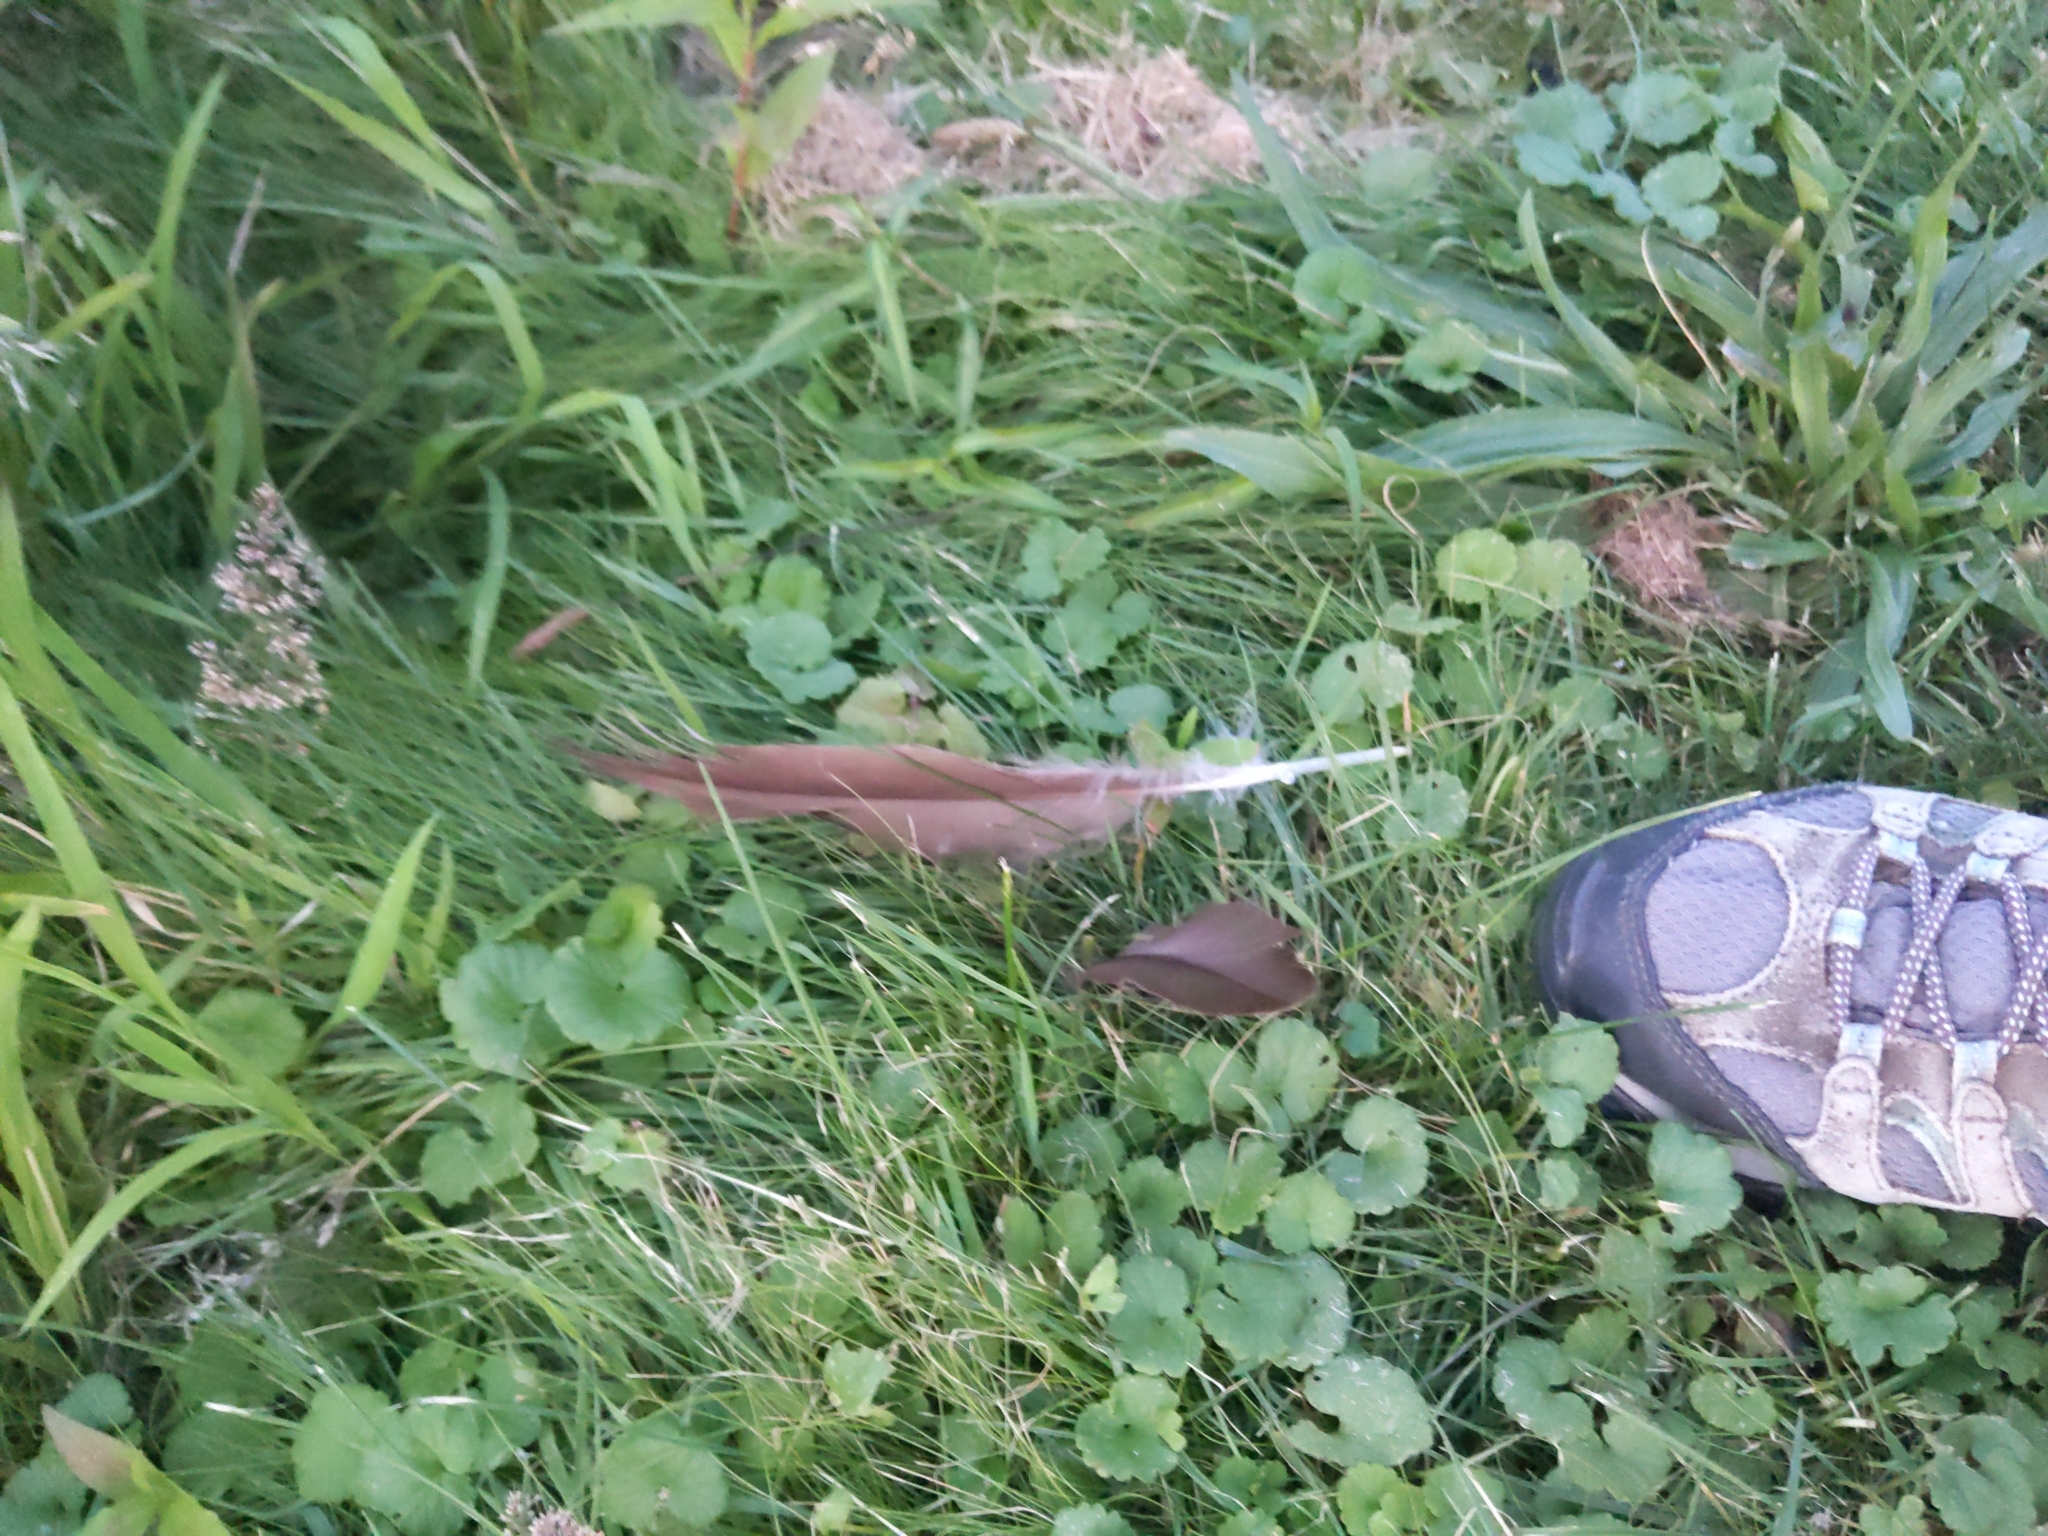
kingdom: Animalia
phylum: Chordata
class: Aves
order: Anseriformes
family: Anatidae
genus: Branta
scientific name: Branta canadensis
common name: Canada goose
